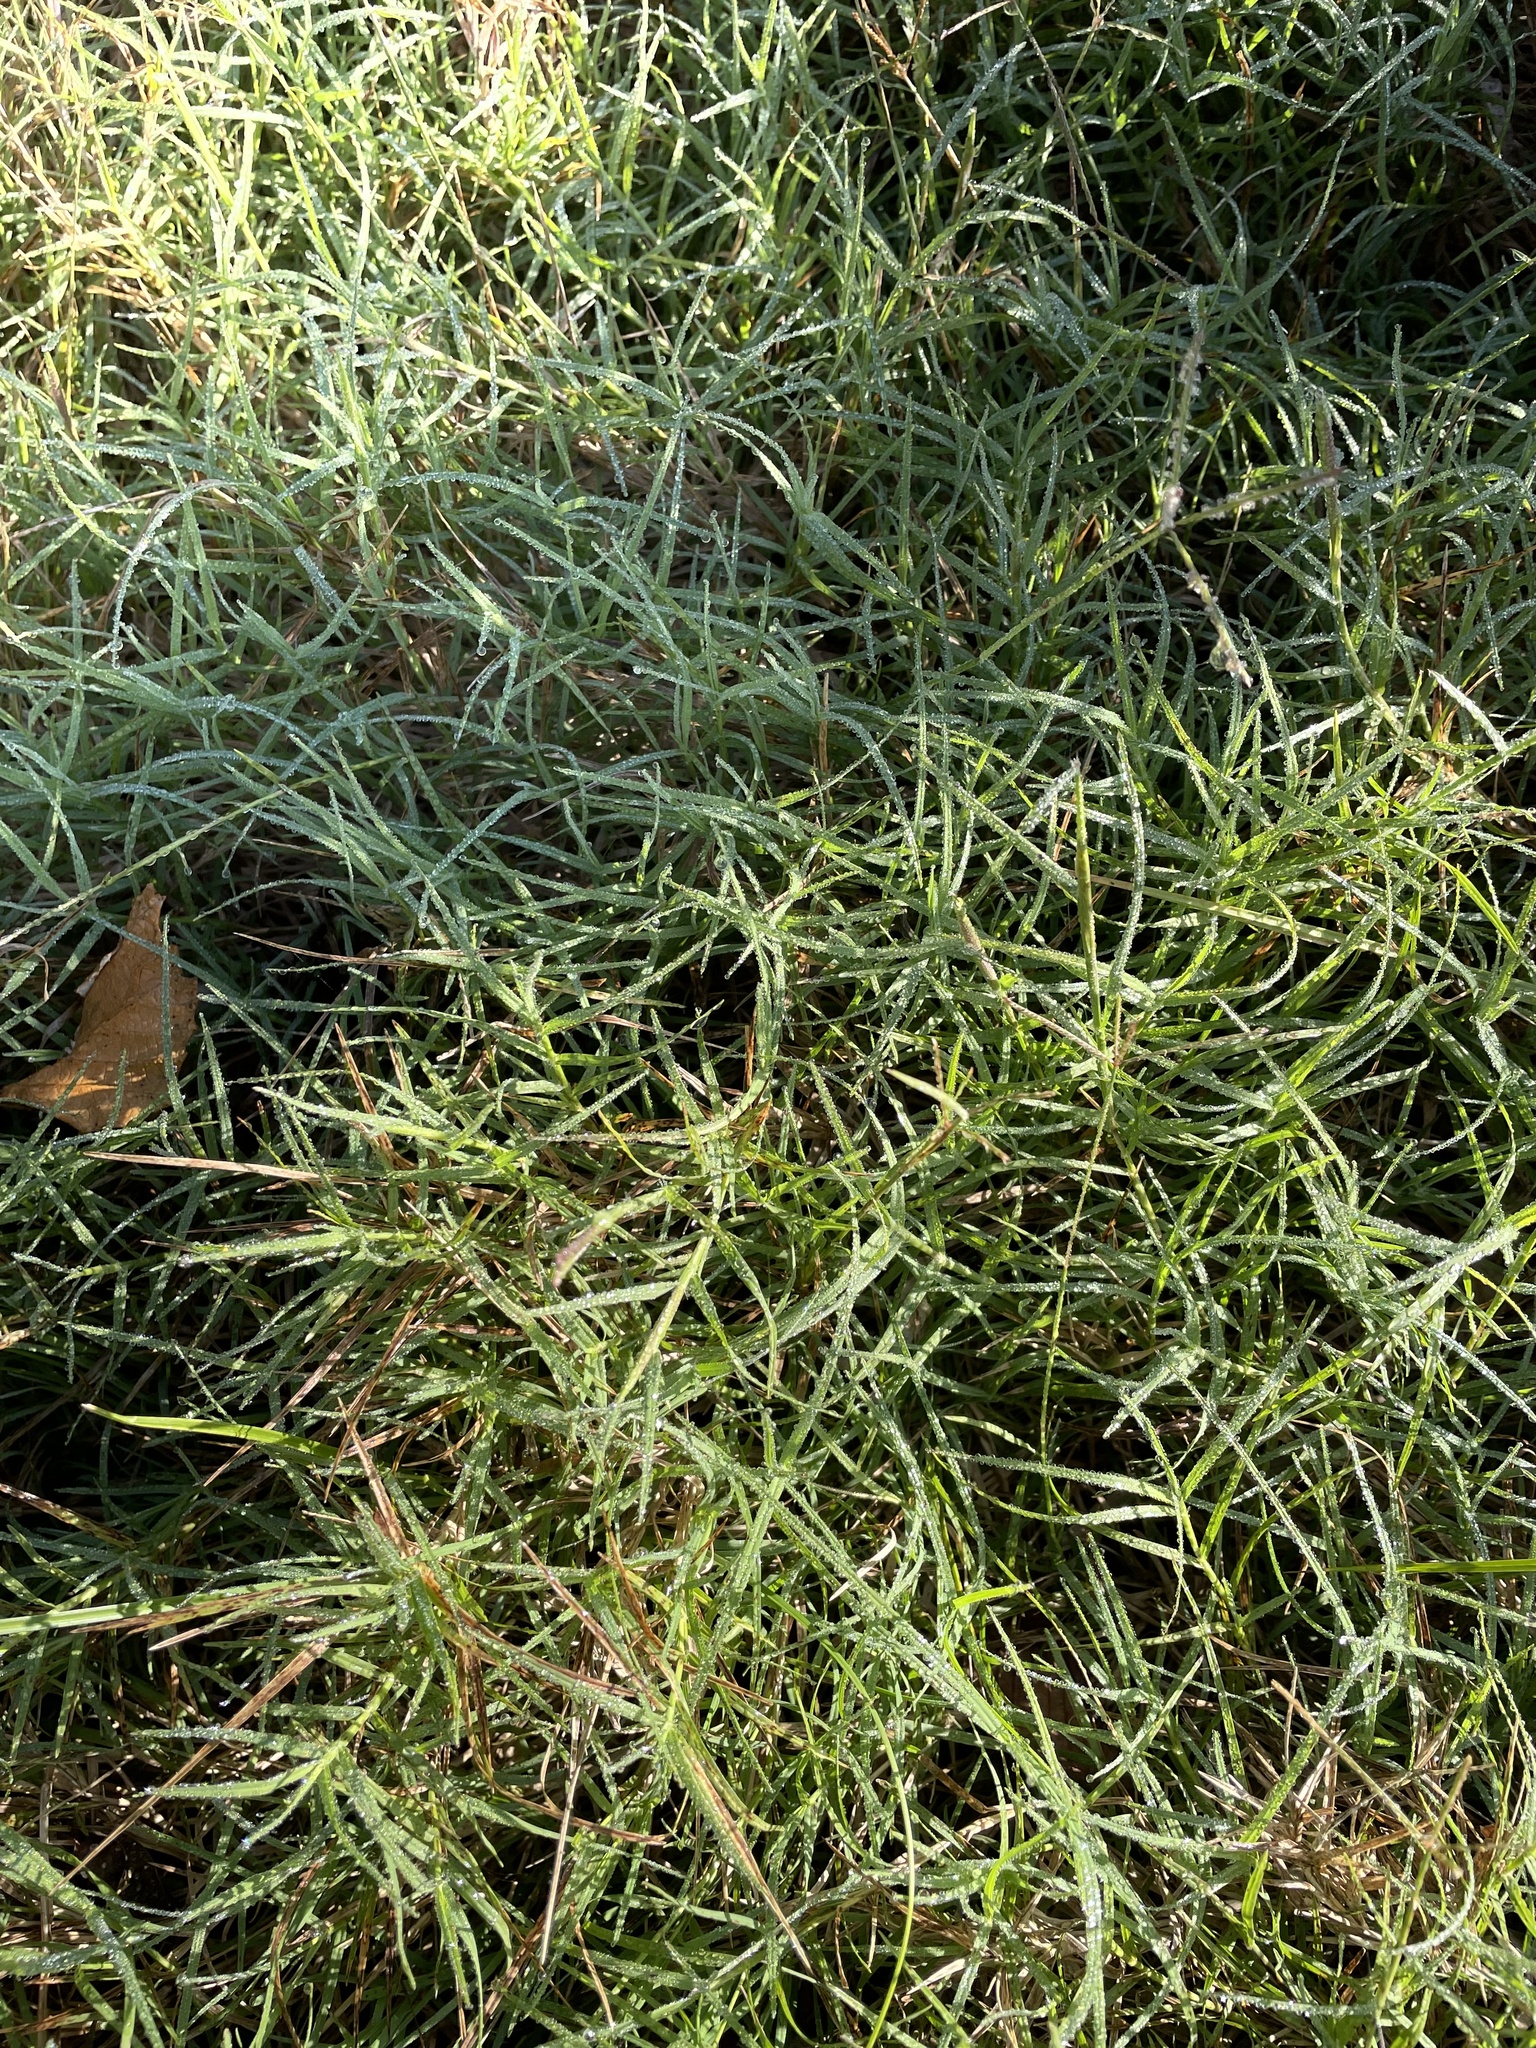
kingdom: Plantae
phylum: Tracheophyta
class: Liliopsida
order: Poales
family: Poaceae
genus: Cynodon
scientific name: Cynodon dactylon
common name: Bermuda grass
